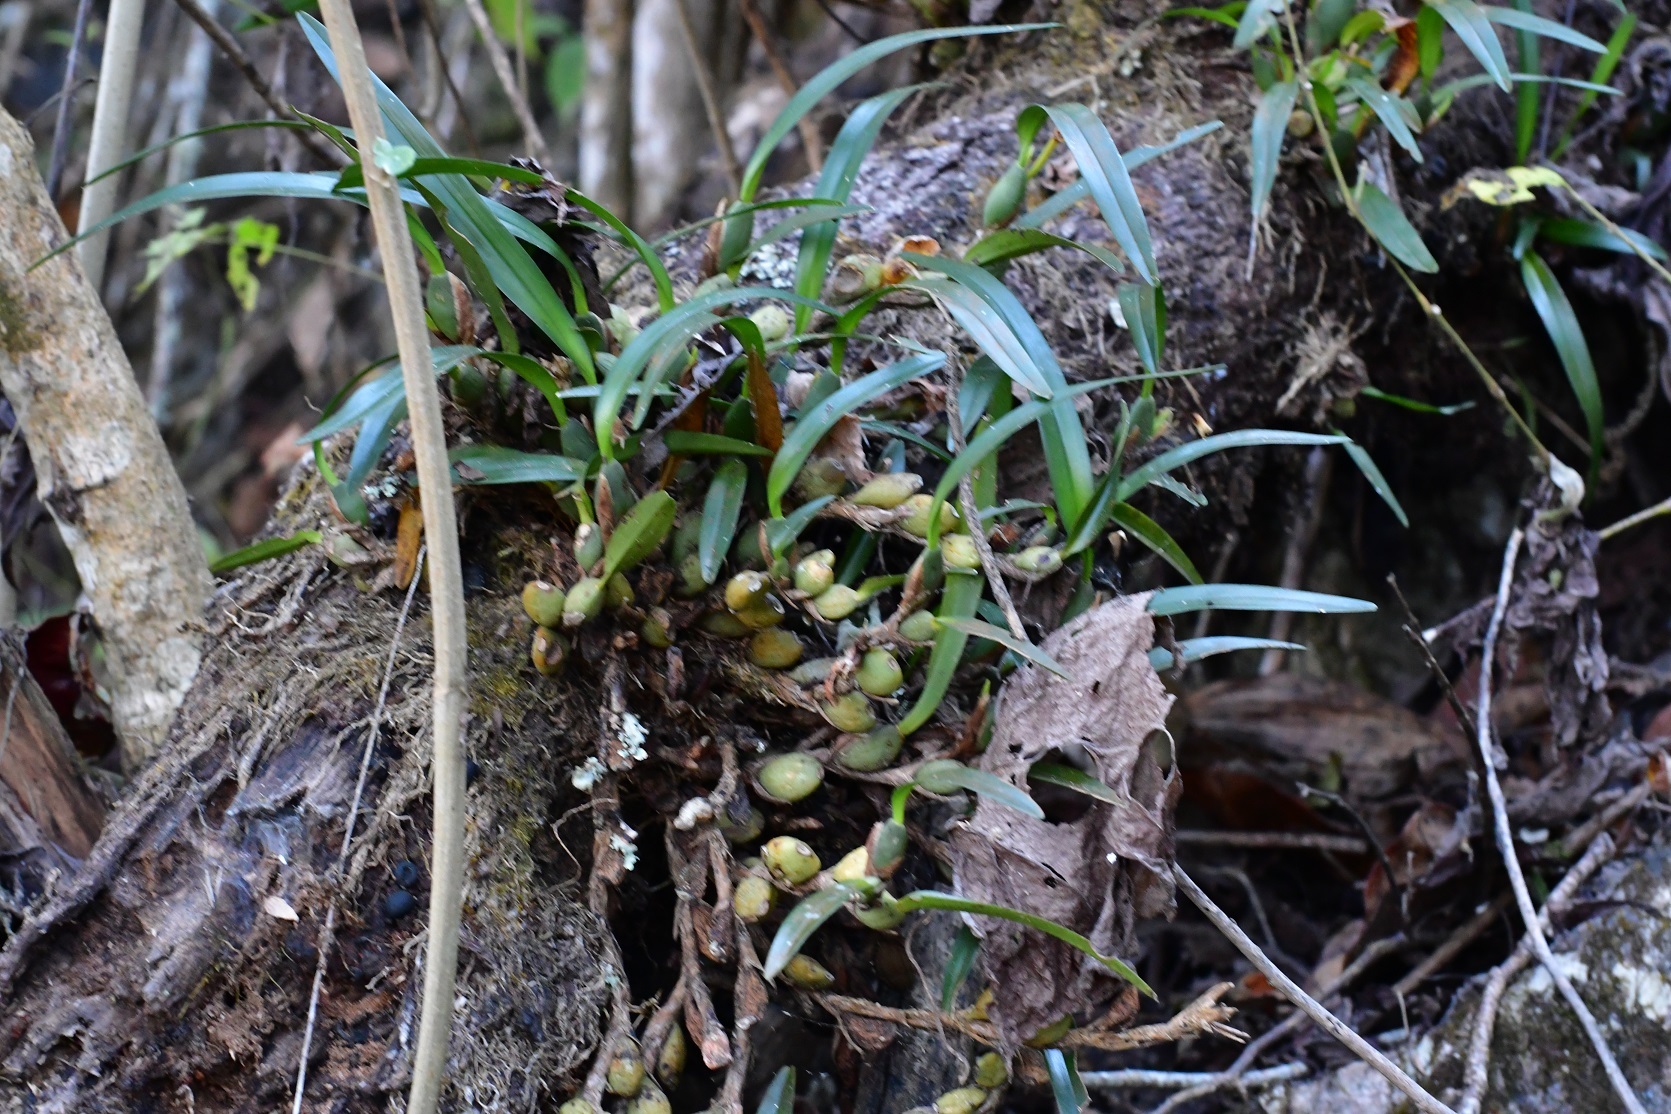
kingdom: Plantae
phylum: Tracheophyta
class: Liliopsida
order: Asparagales
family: Orchidaceae
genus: Maxillaria
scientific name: Maxillaria densa
